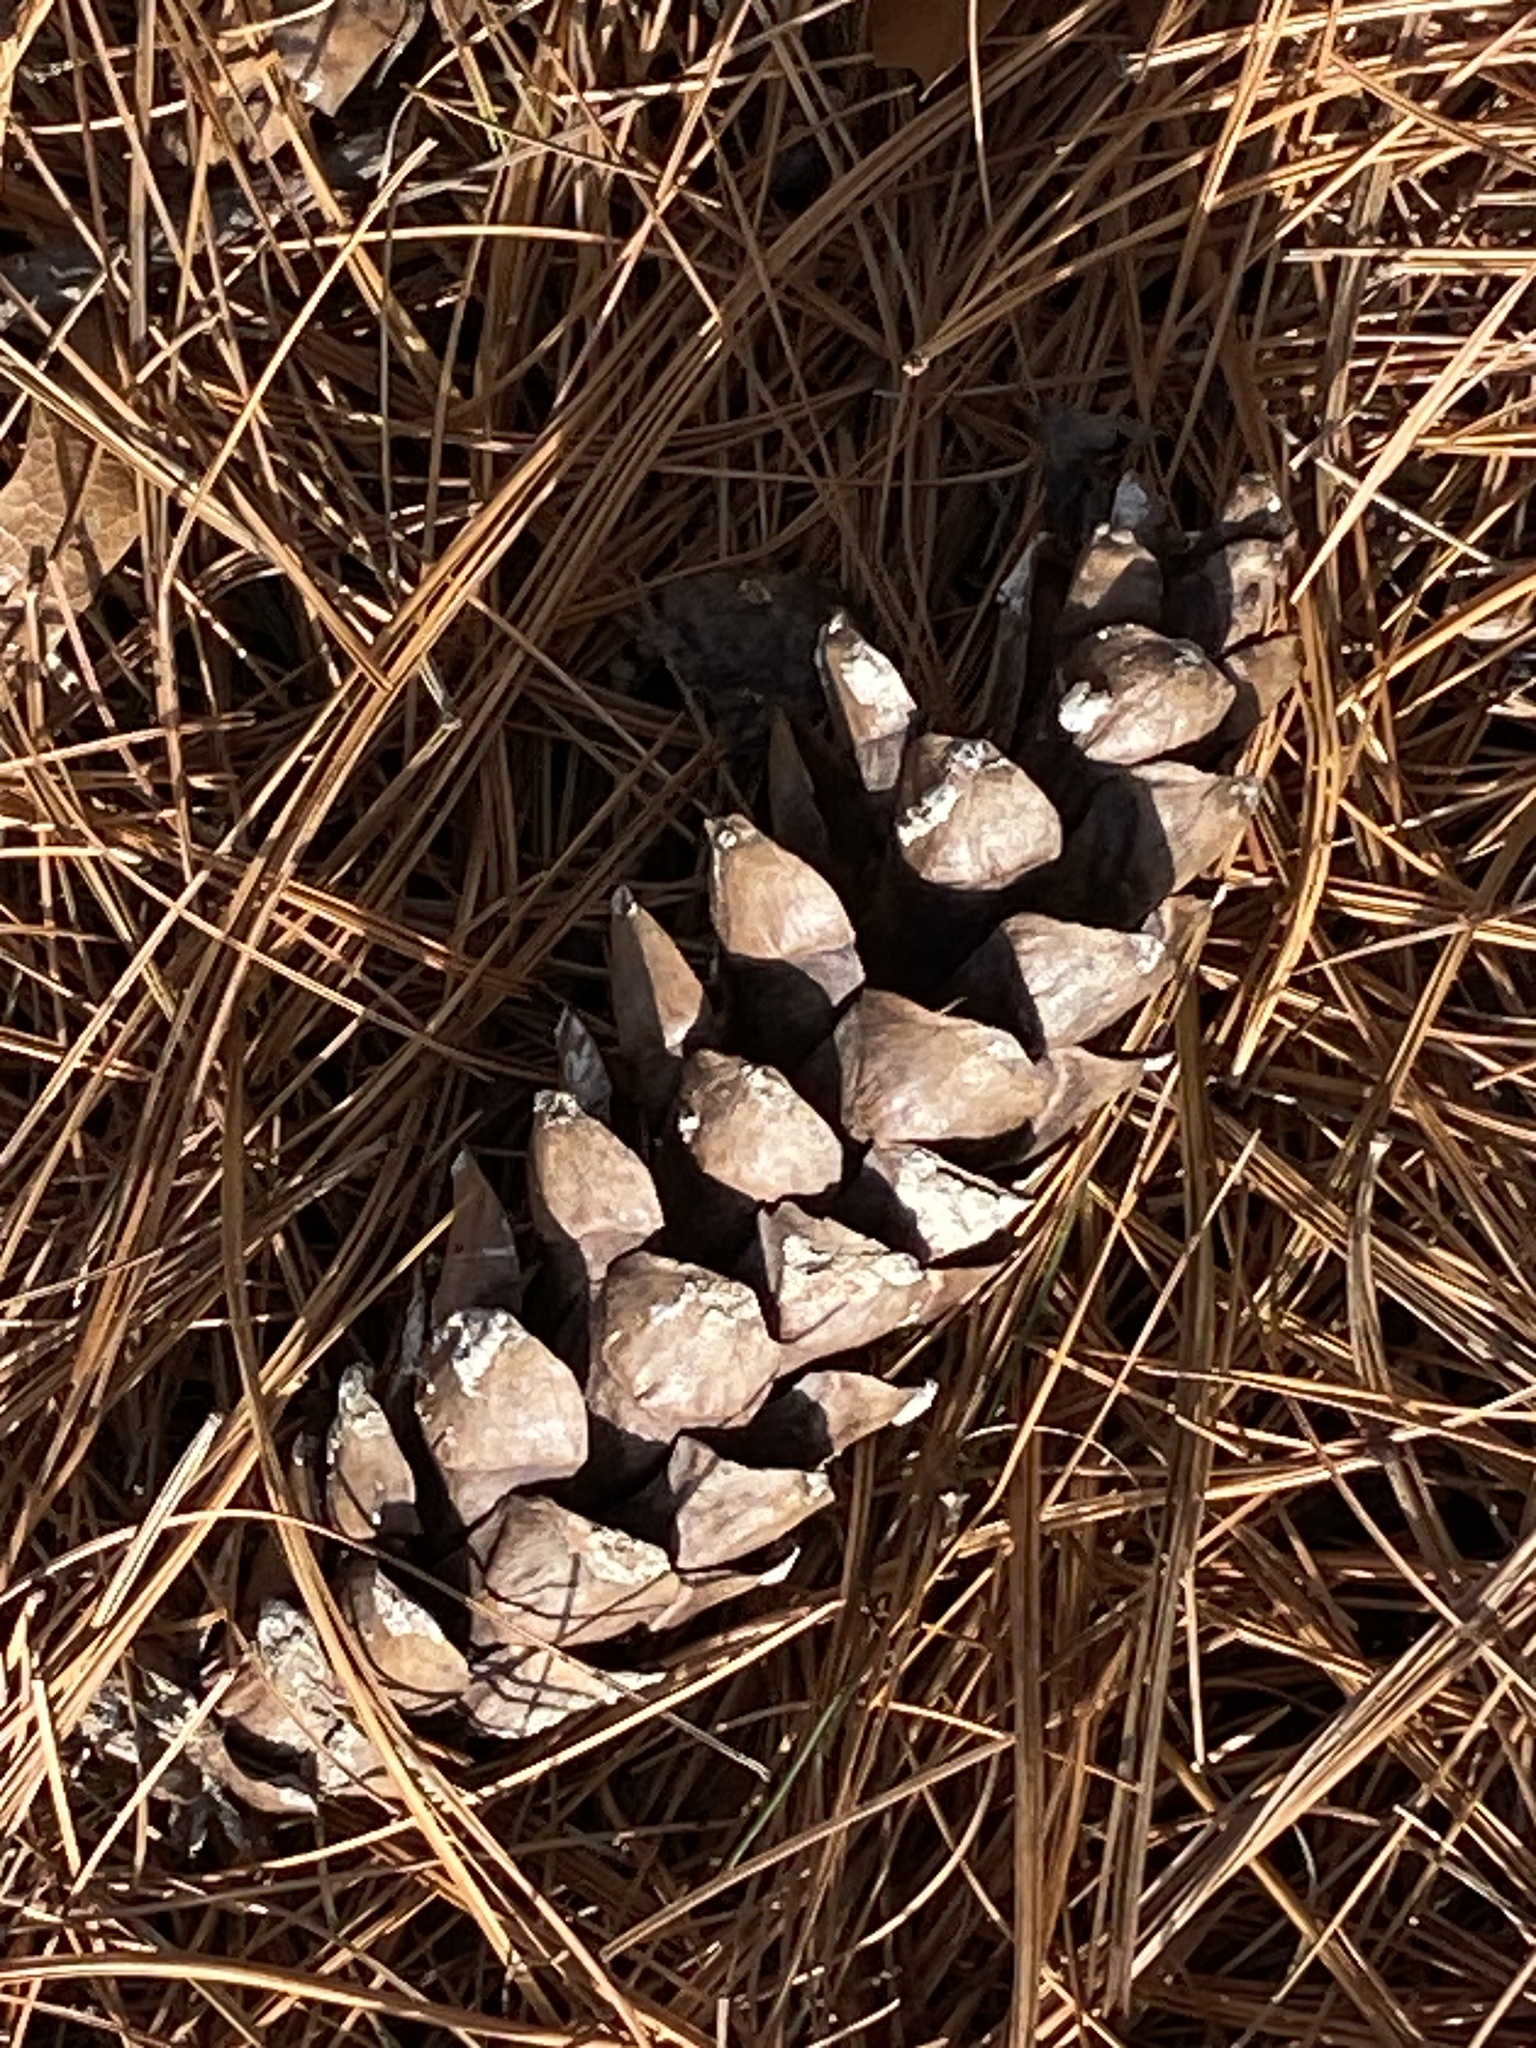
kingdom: Plantae
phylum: Tracheophyta
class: Pinopsida
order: Pinales
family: Pinaceae
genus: Pinus
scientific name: Pinus strobus
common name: Weymouth pine
